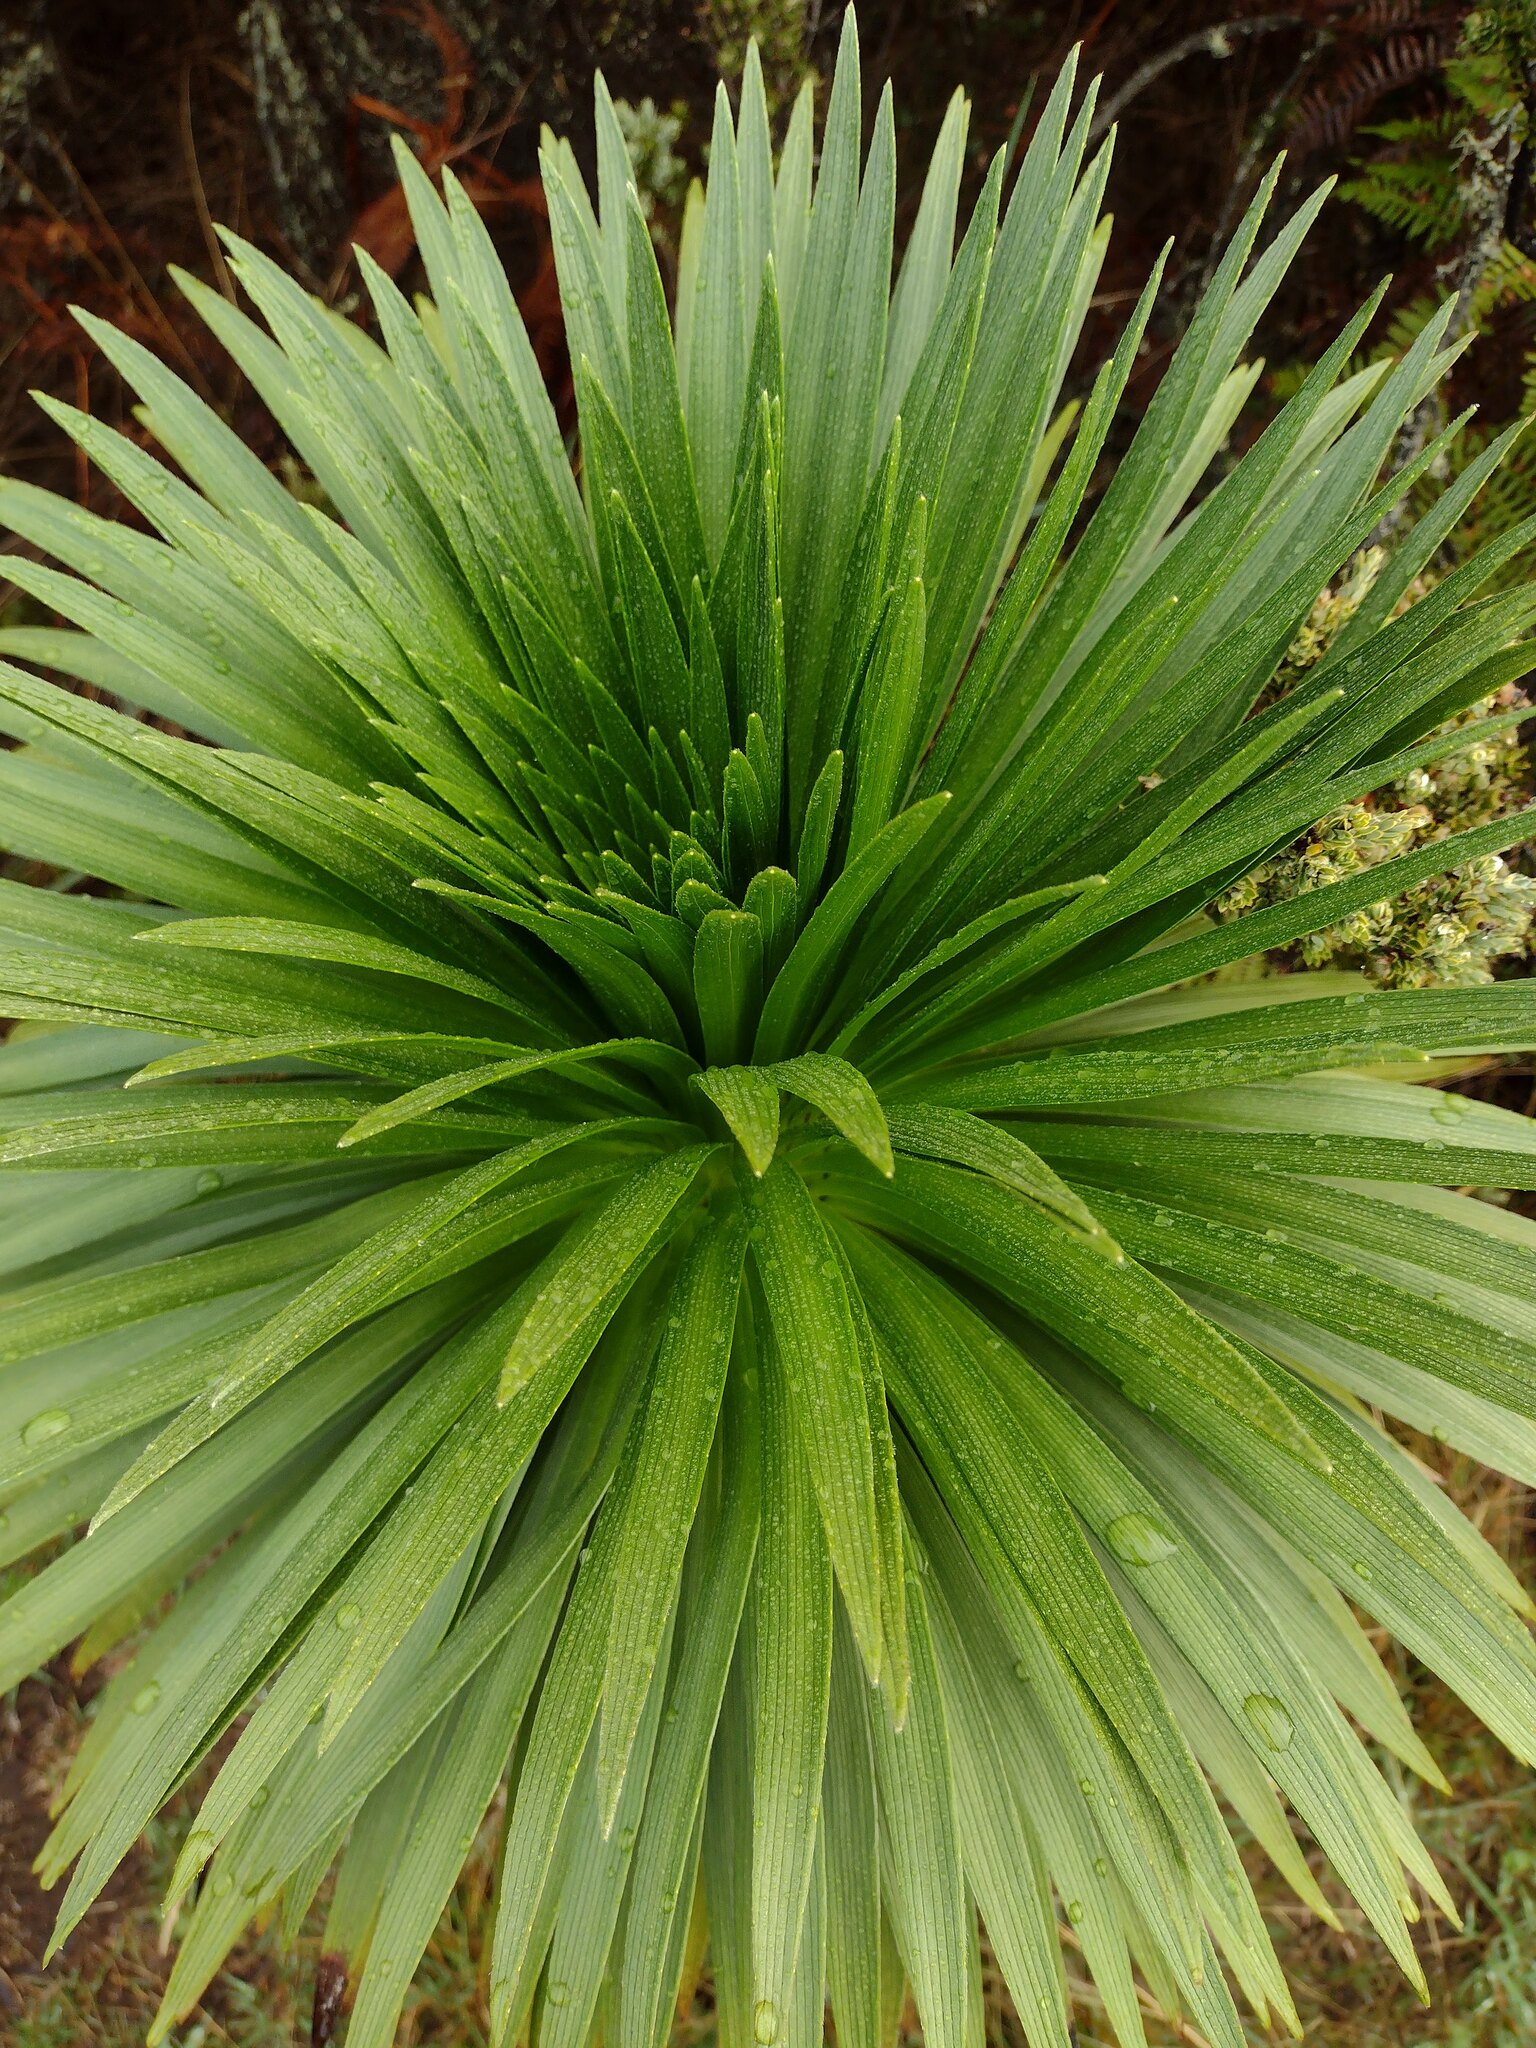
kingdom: Plantae
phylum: Tracheophyta
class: Magnoliopsida
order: Asterales
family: Asteraceae
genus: Argyroxiphium
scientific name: Argyroxiphium grayanum
